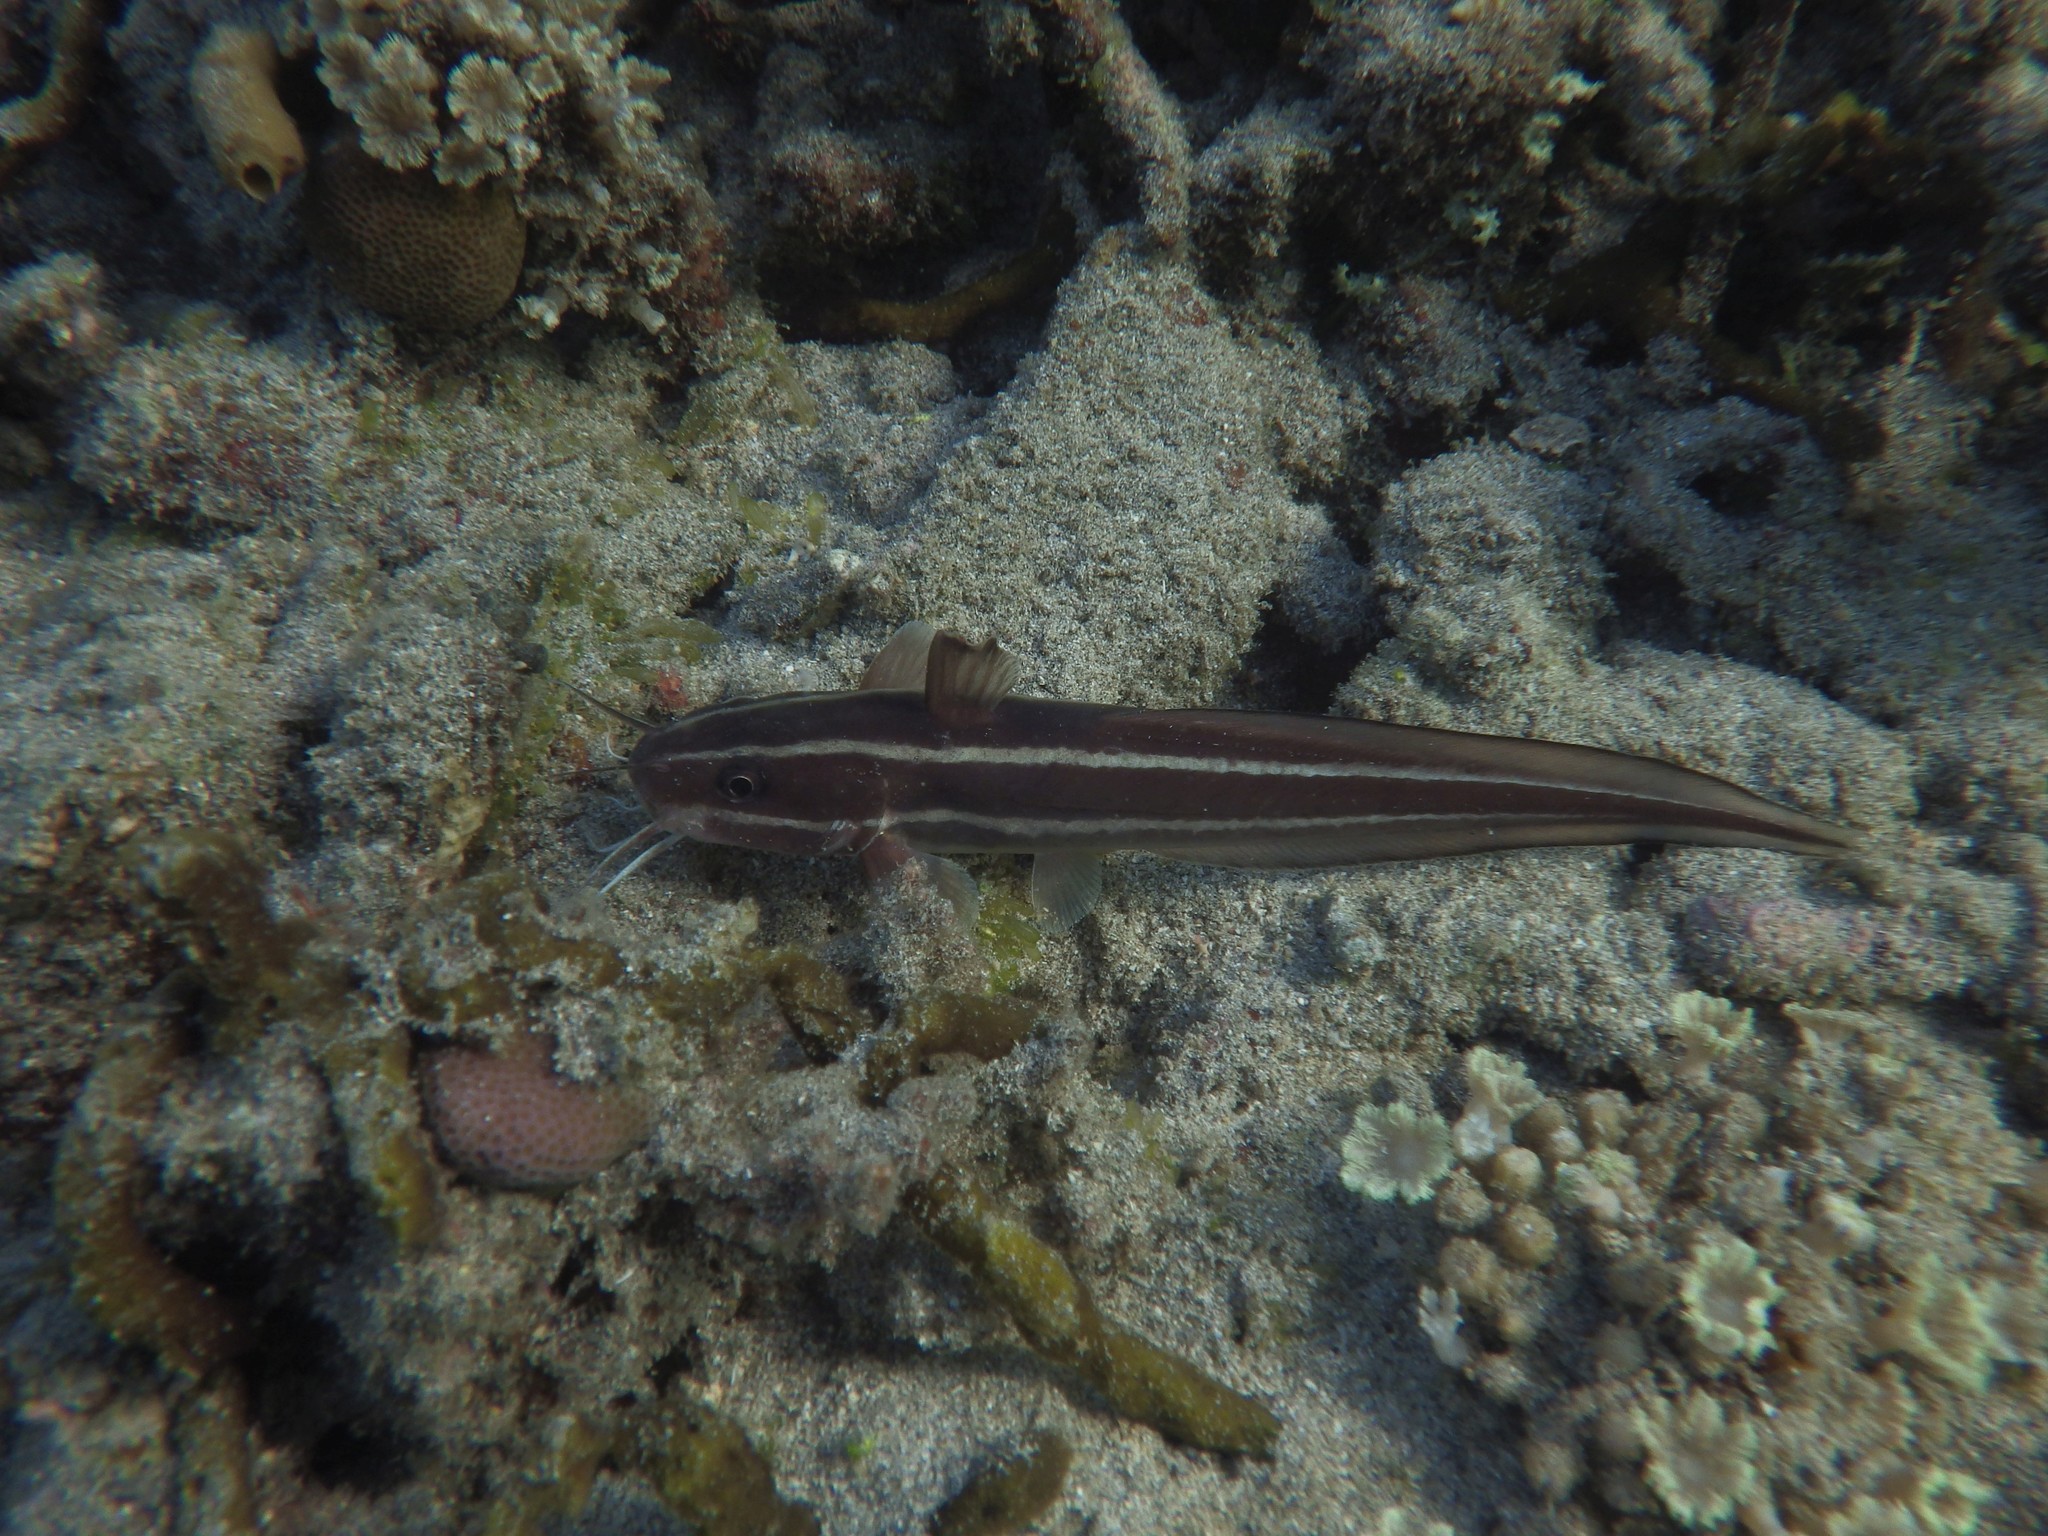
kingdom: Animalia
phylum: Chordata
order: Siluriformes
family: Plotosidae
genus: Plotosus
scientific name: Plotosus lineatus
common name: Striped eel catfish
